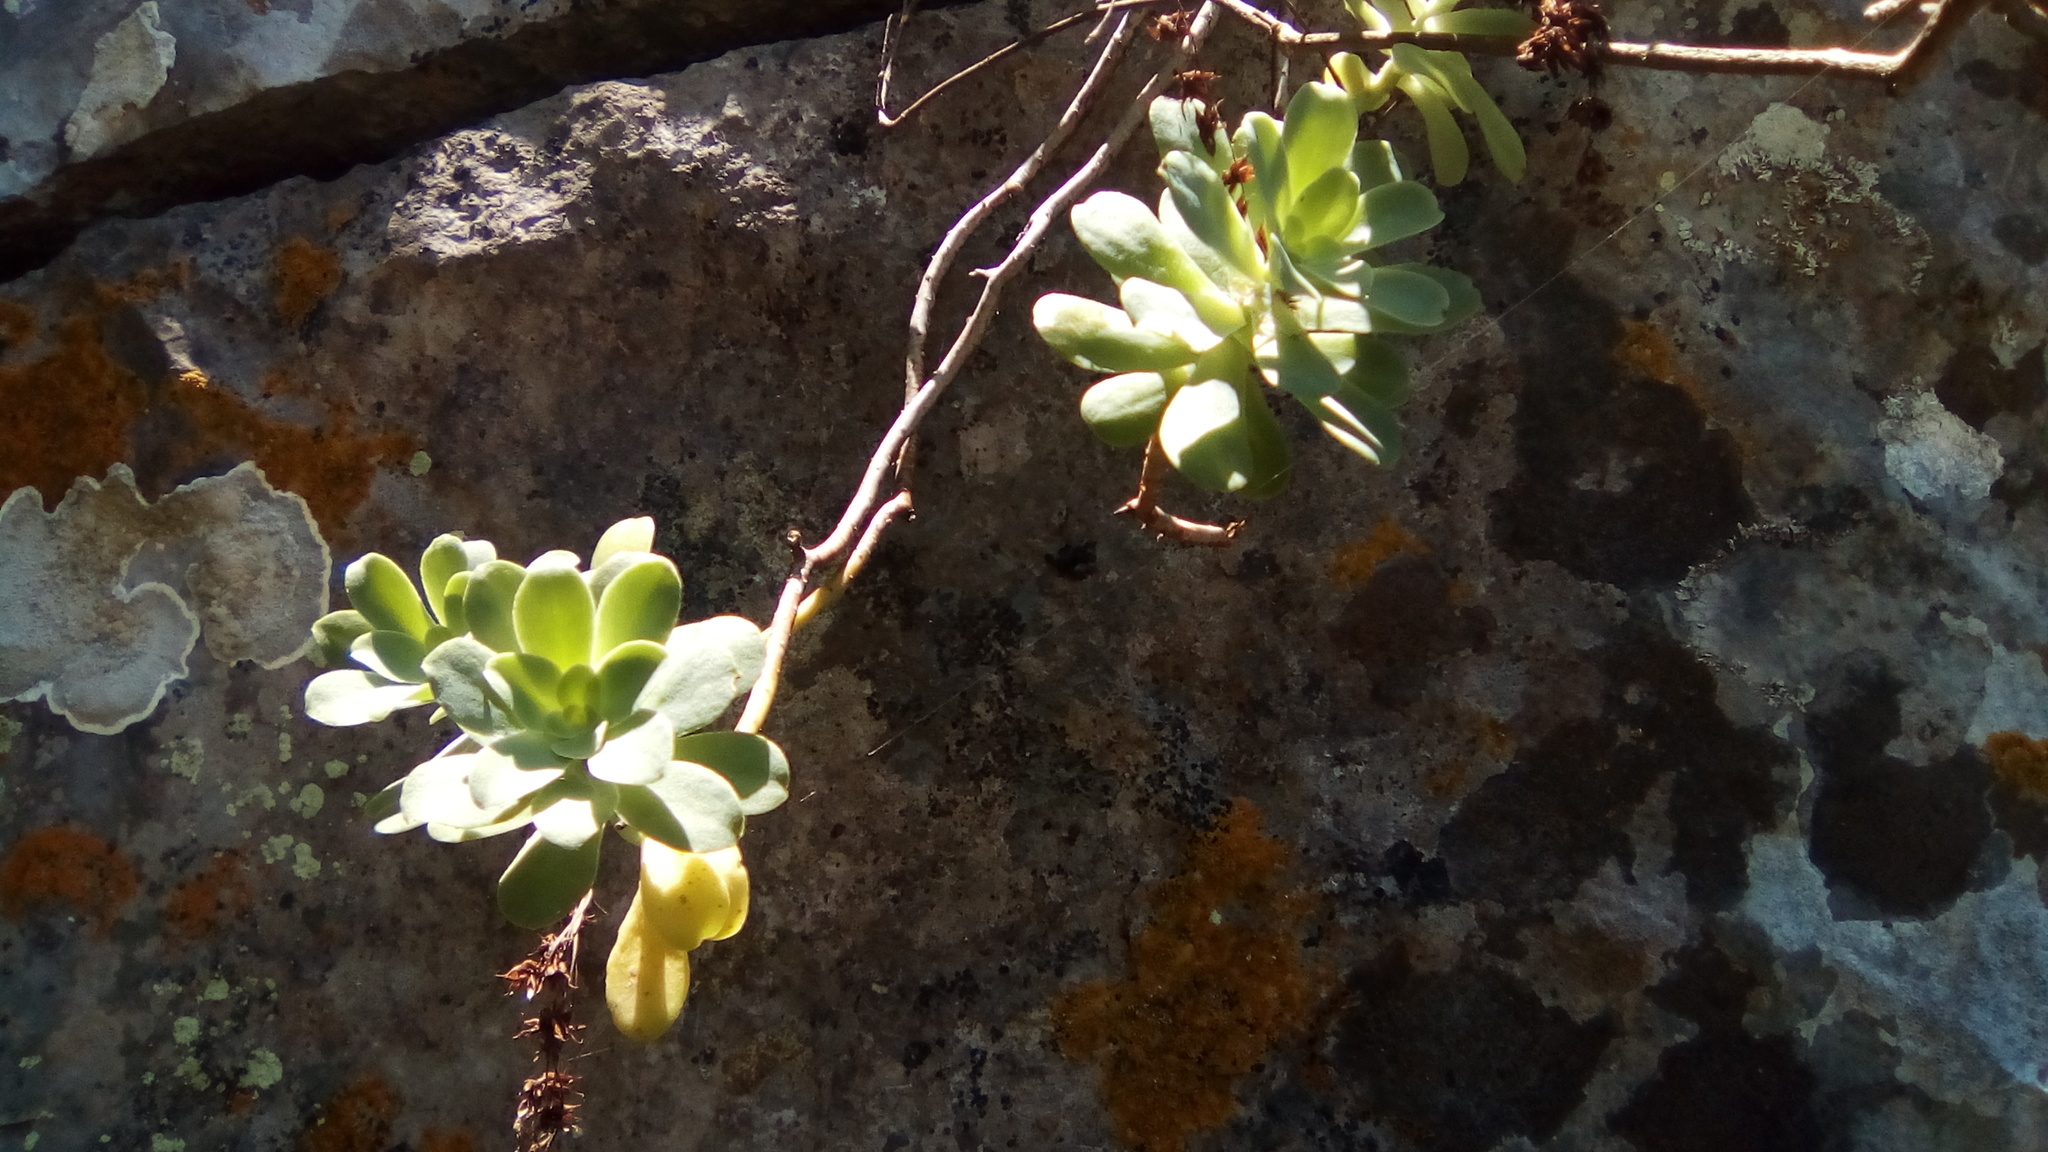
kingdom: Plantae
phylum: Tracheophyta
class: Magnoliopsida
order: Saxifragales
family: Crassulaceae
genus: Sedum
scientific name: Sedum palmeri
